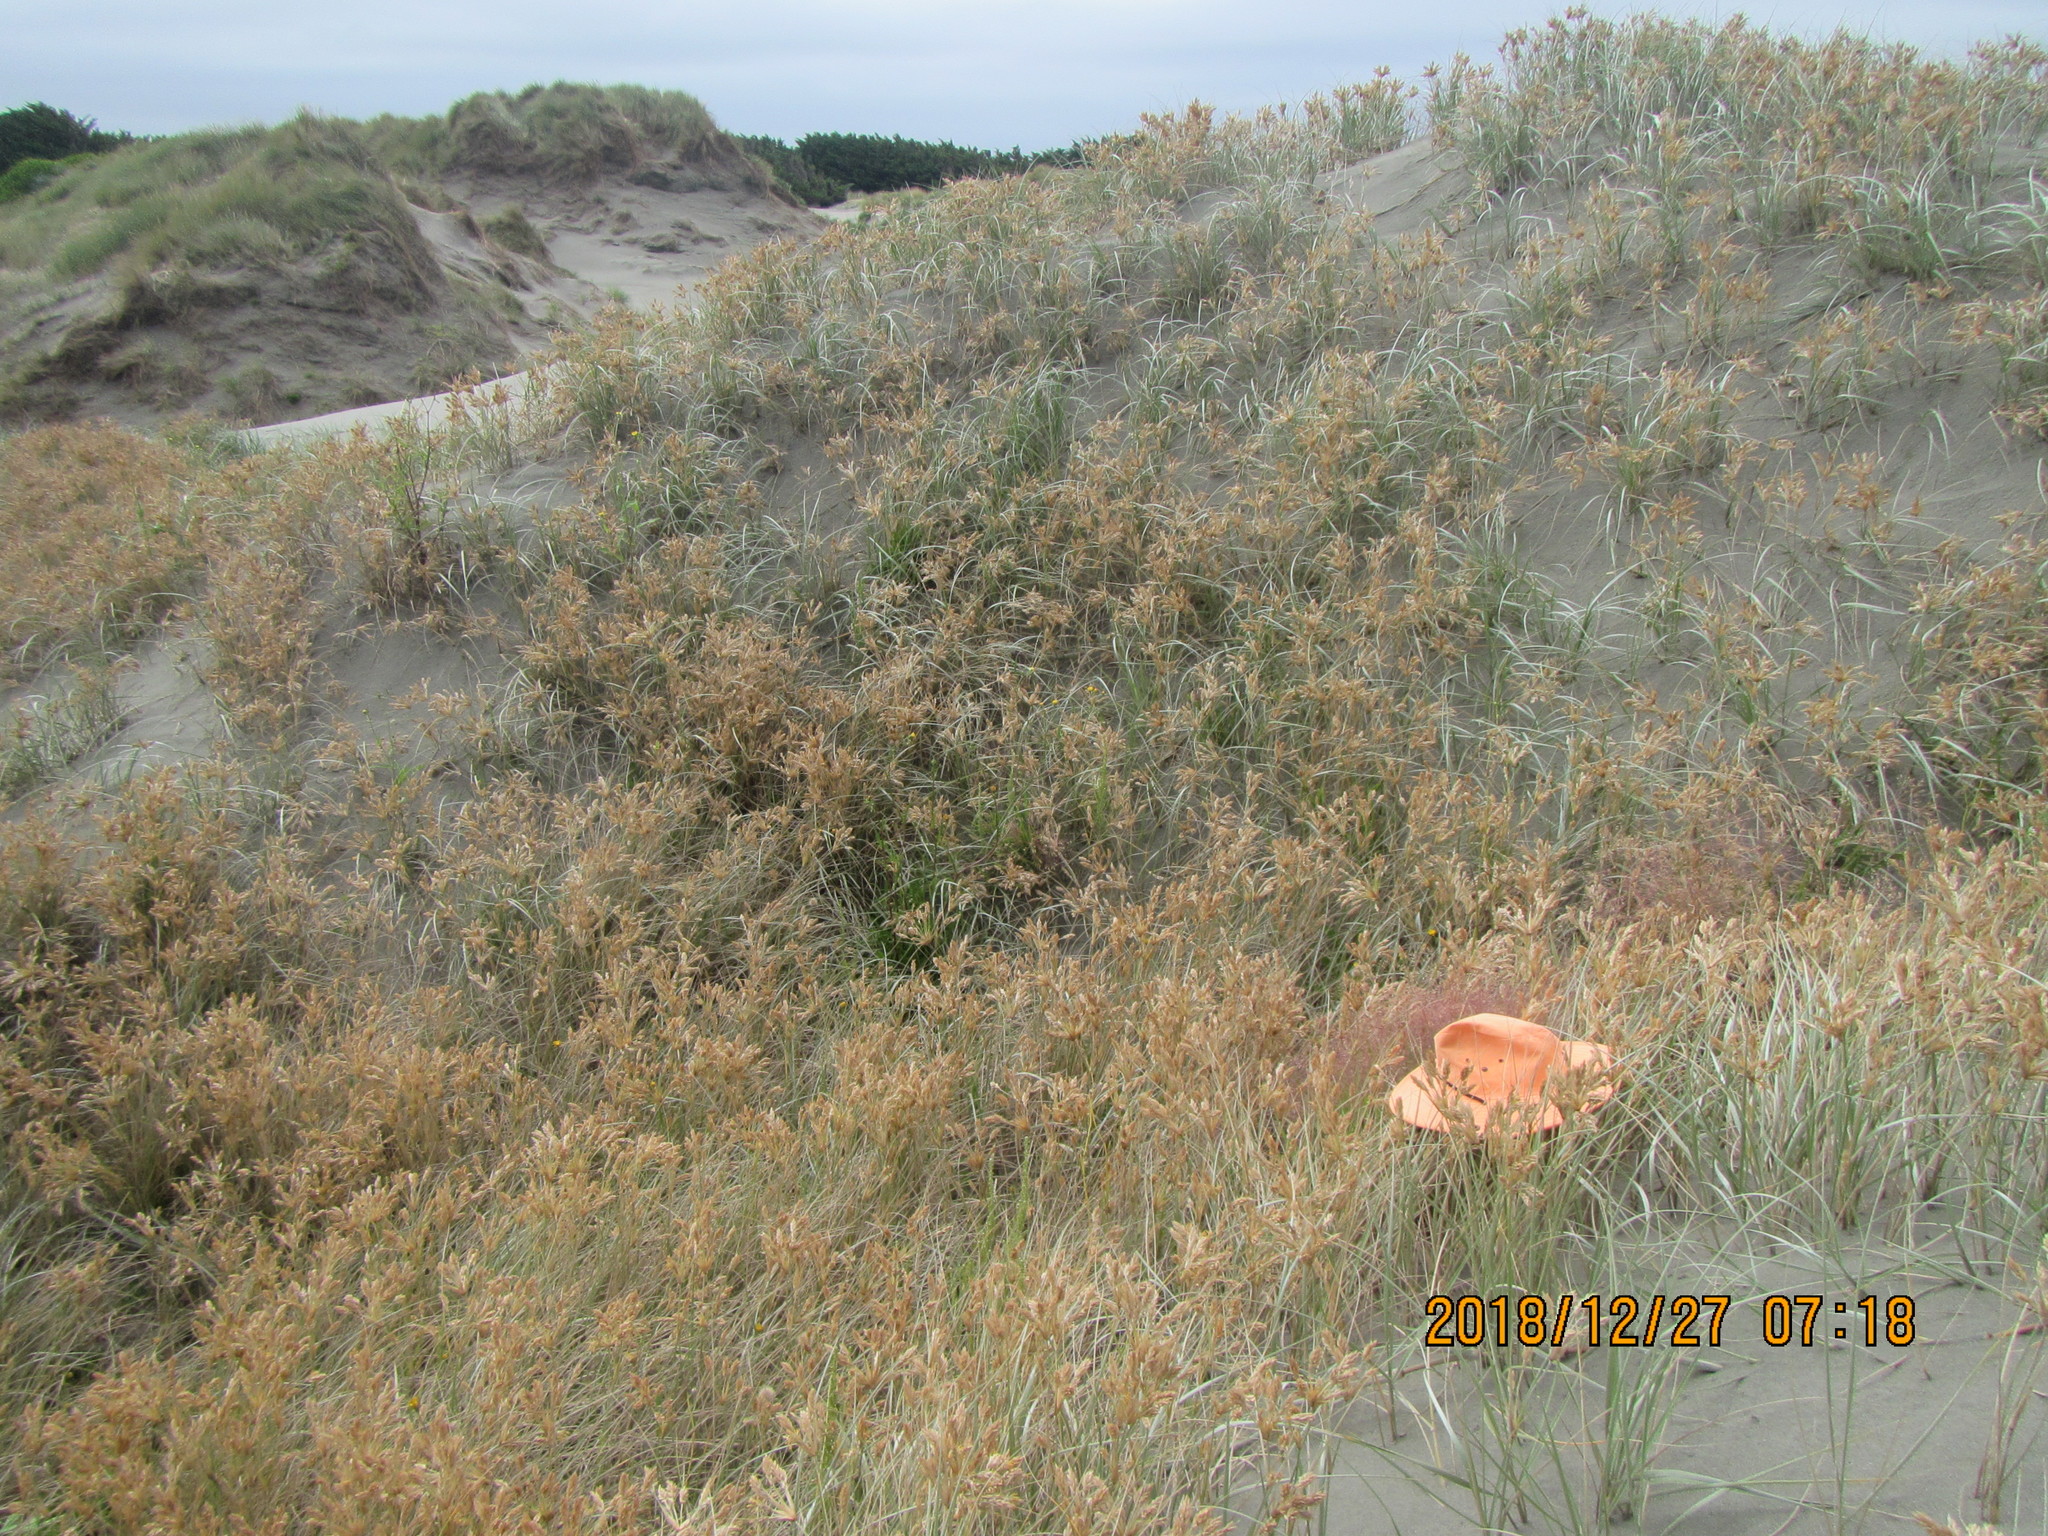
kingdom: Plantae
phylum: Tracheophyta
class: Liliopsida
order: Poales
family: Poaceae
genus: Lachnagrostis
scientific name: Lachnagrostis billardierei
